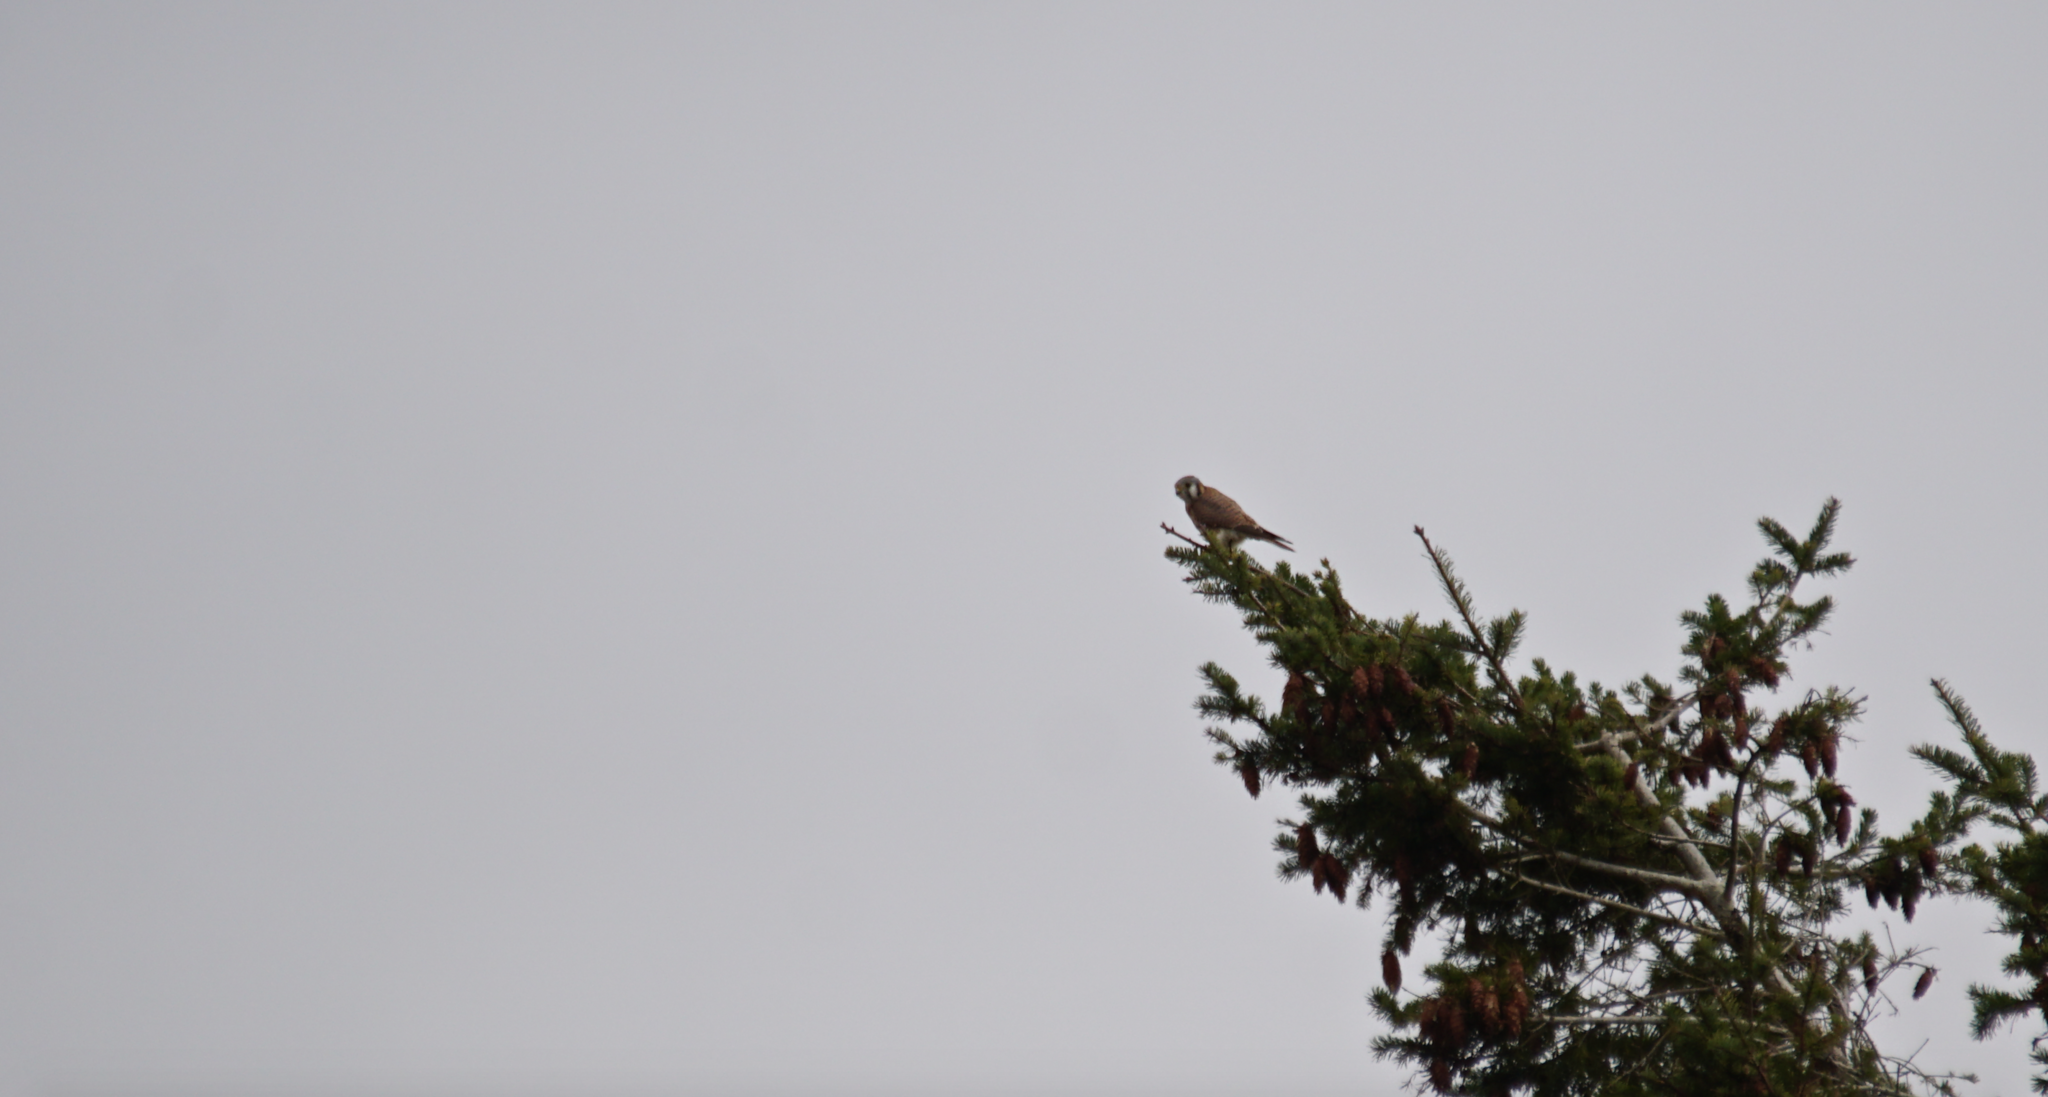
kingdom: Animalia
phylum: Chordata
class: Aves
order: Falconiformes
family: Falconidae
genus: Falco
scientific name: Falco sparverius
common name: American kestrel
